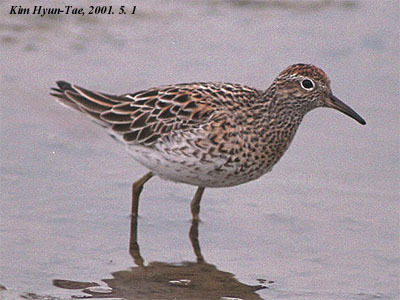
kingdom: Animalia
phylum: Chordata
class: Aves
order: Charadriiformes
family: Scolopacidae
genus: Calidris
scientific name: Calidris acuminata
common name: Sharp-tailed sandpiper
